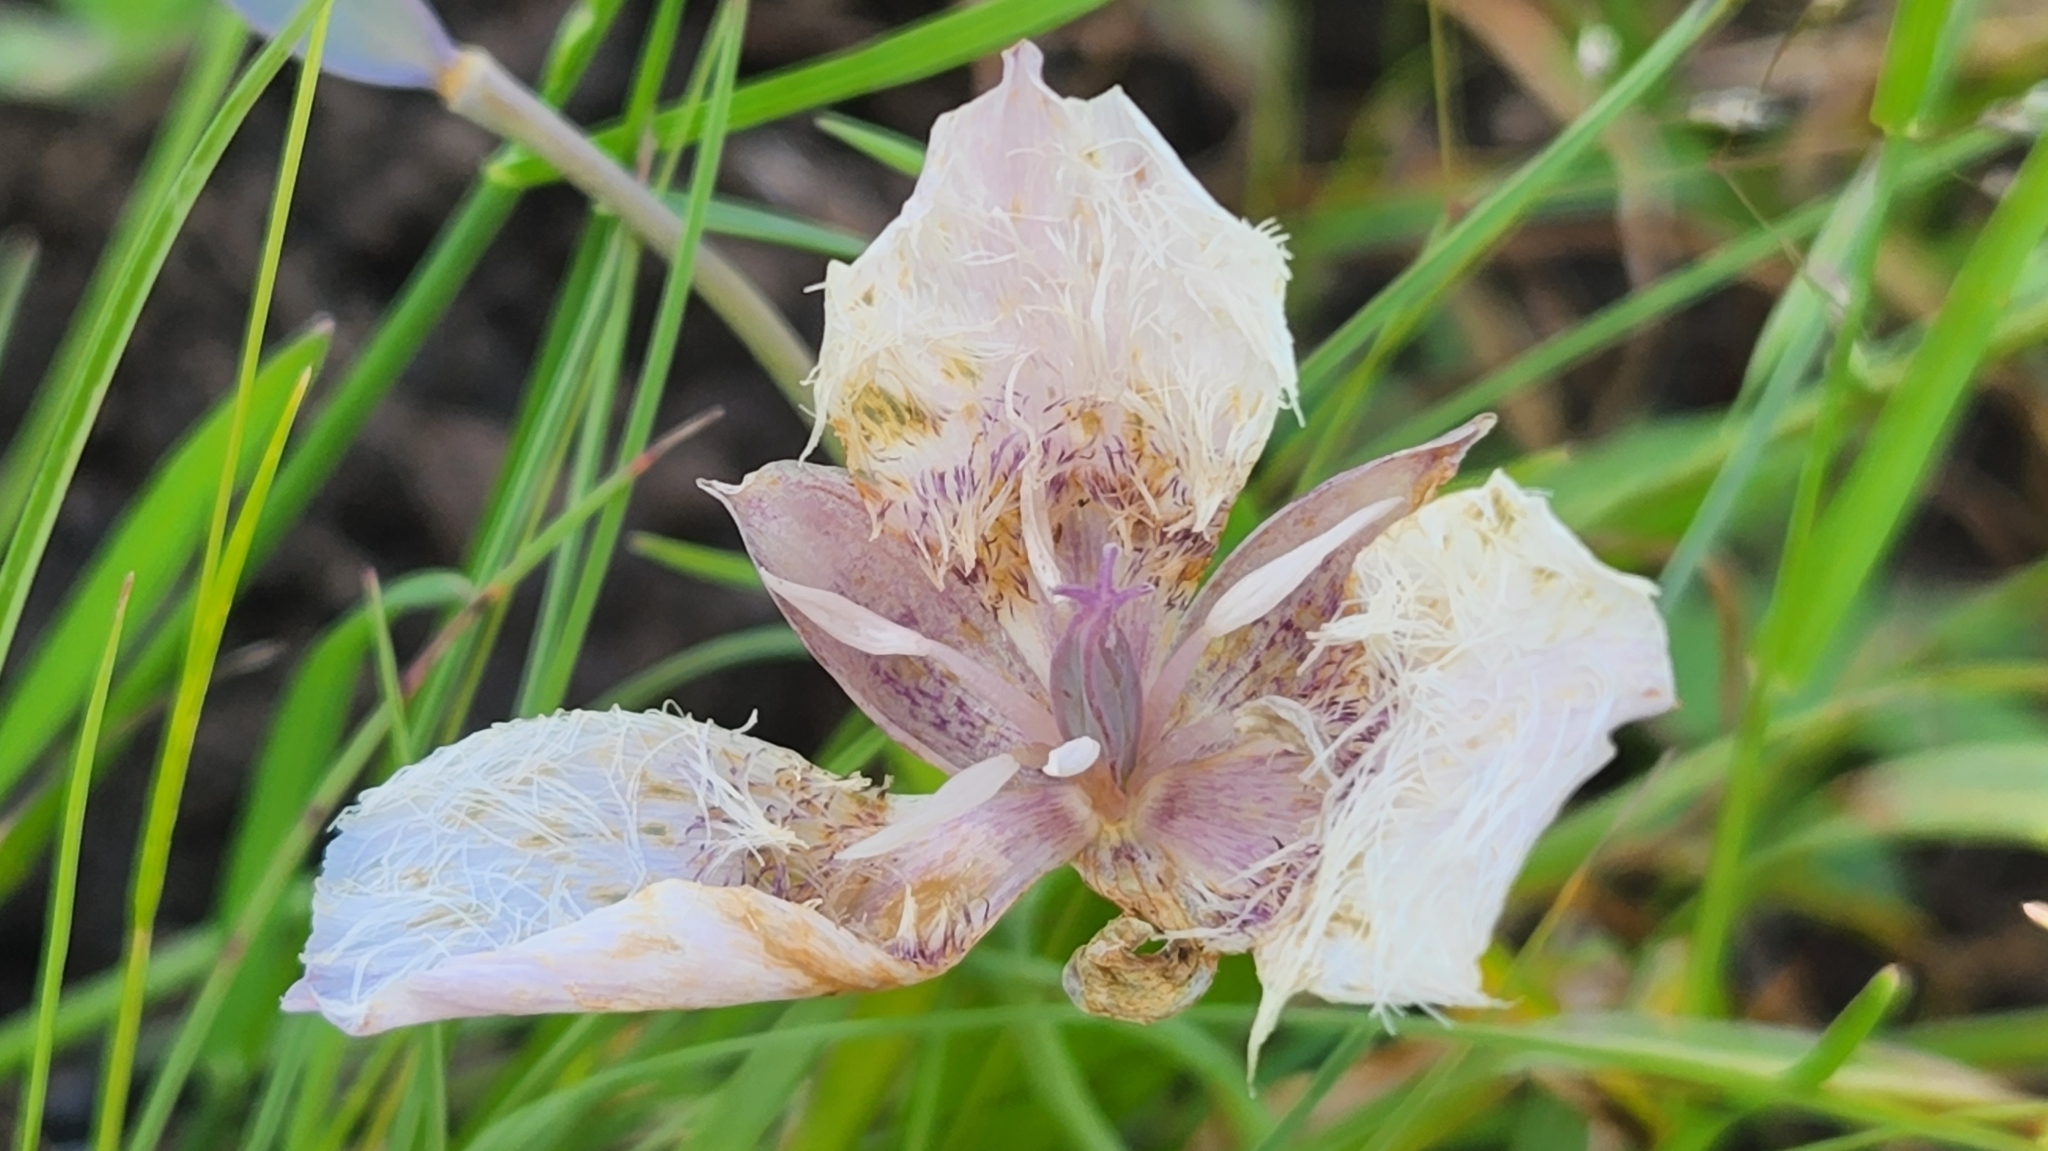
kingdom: Plantae
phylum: Tracheophyta
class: Liliopsida
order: Liliales
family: Liliaceae
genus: Calochortus
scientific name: Calochortus tolmiei
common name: Pussy-ears
